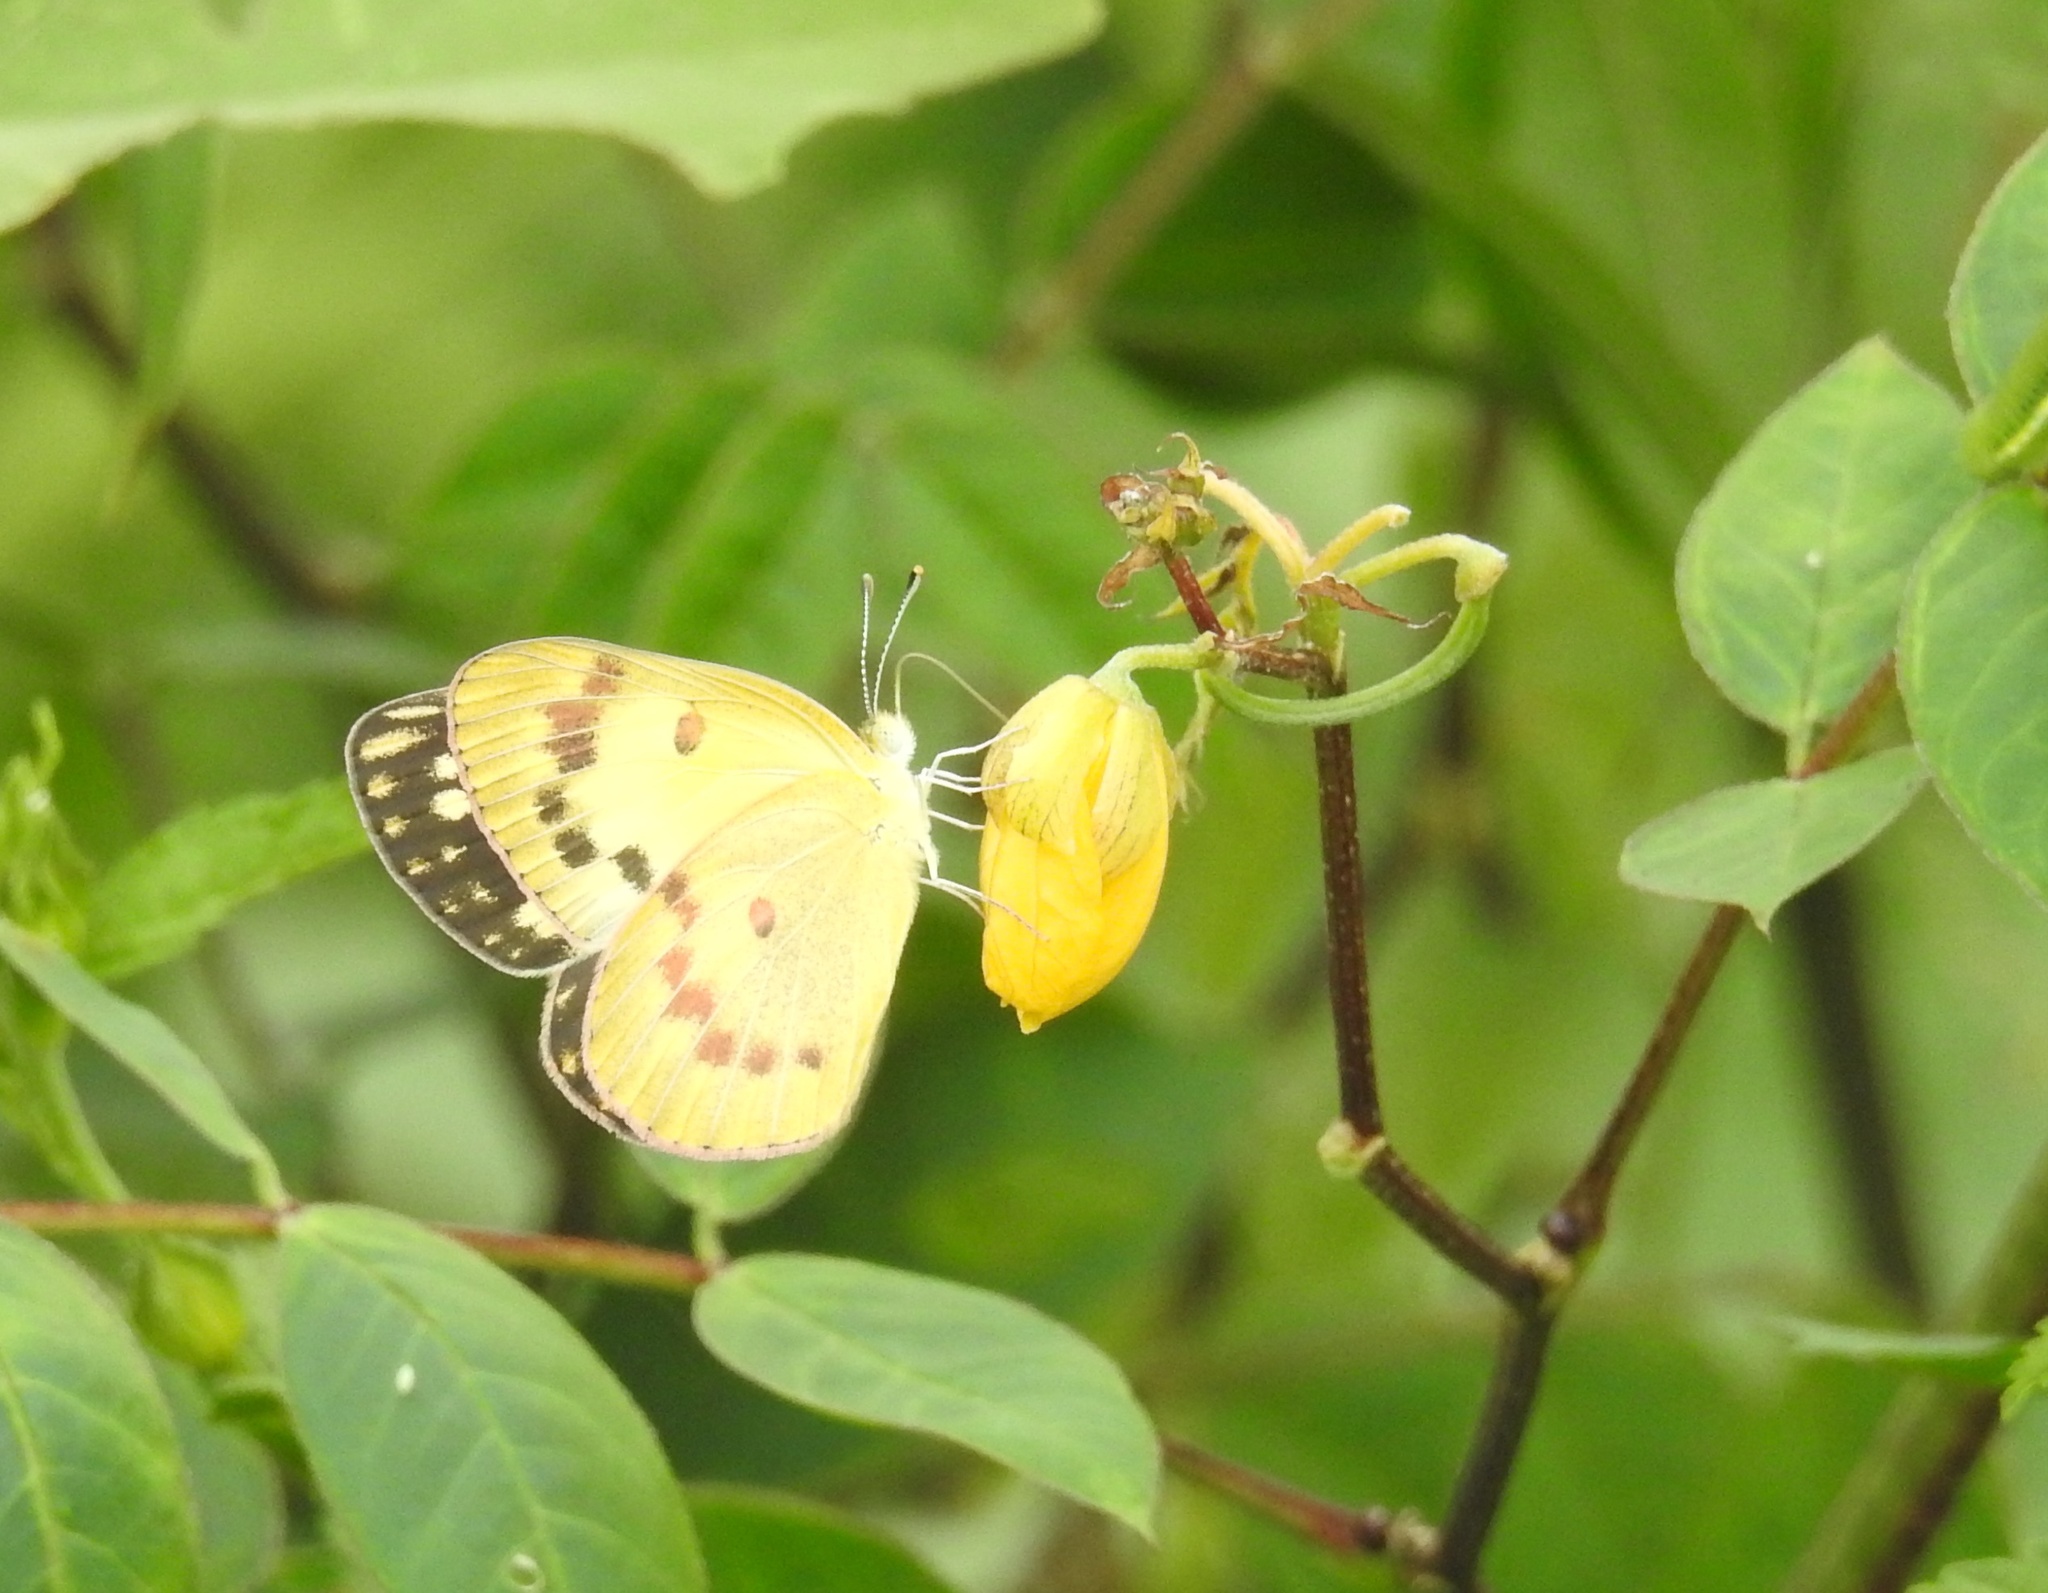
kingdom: Animalia
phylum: Arthropoda
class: Insecta
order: Lepidoptera
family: Pieridae
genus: Colotis
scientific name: Colotis amata
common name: Small salmon arab
